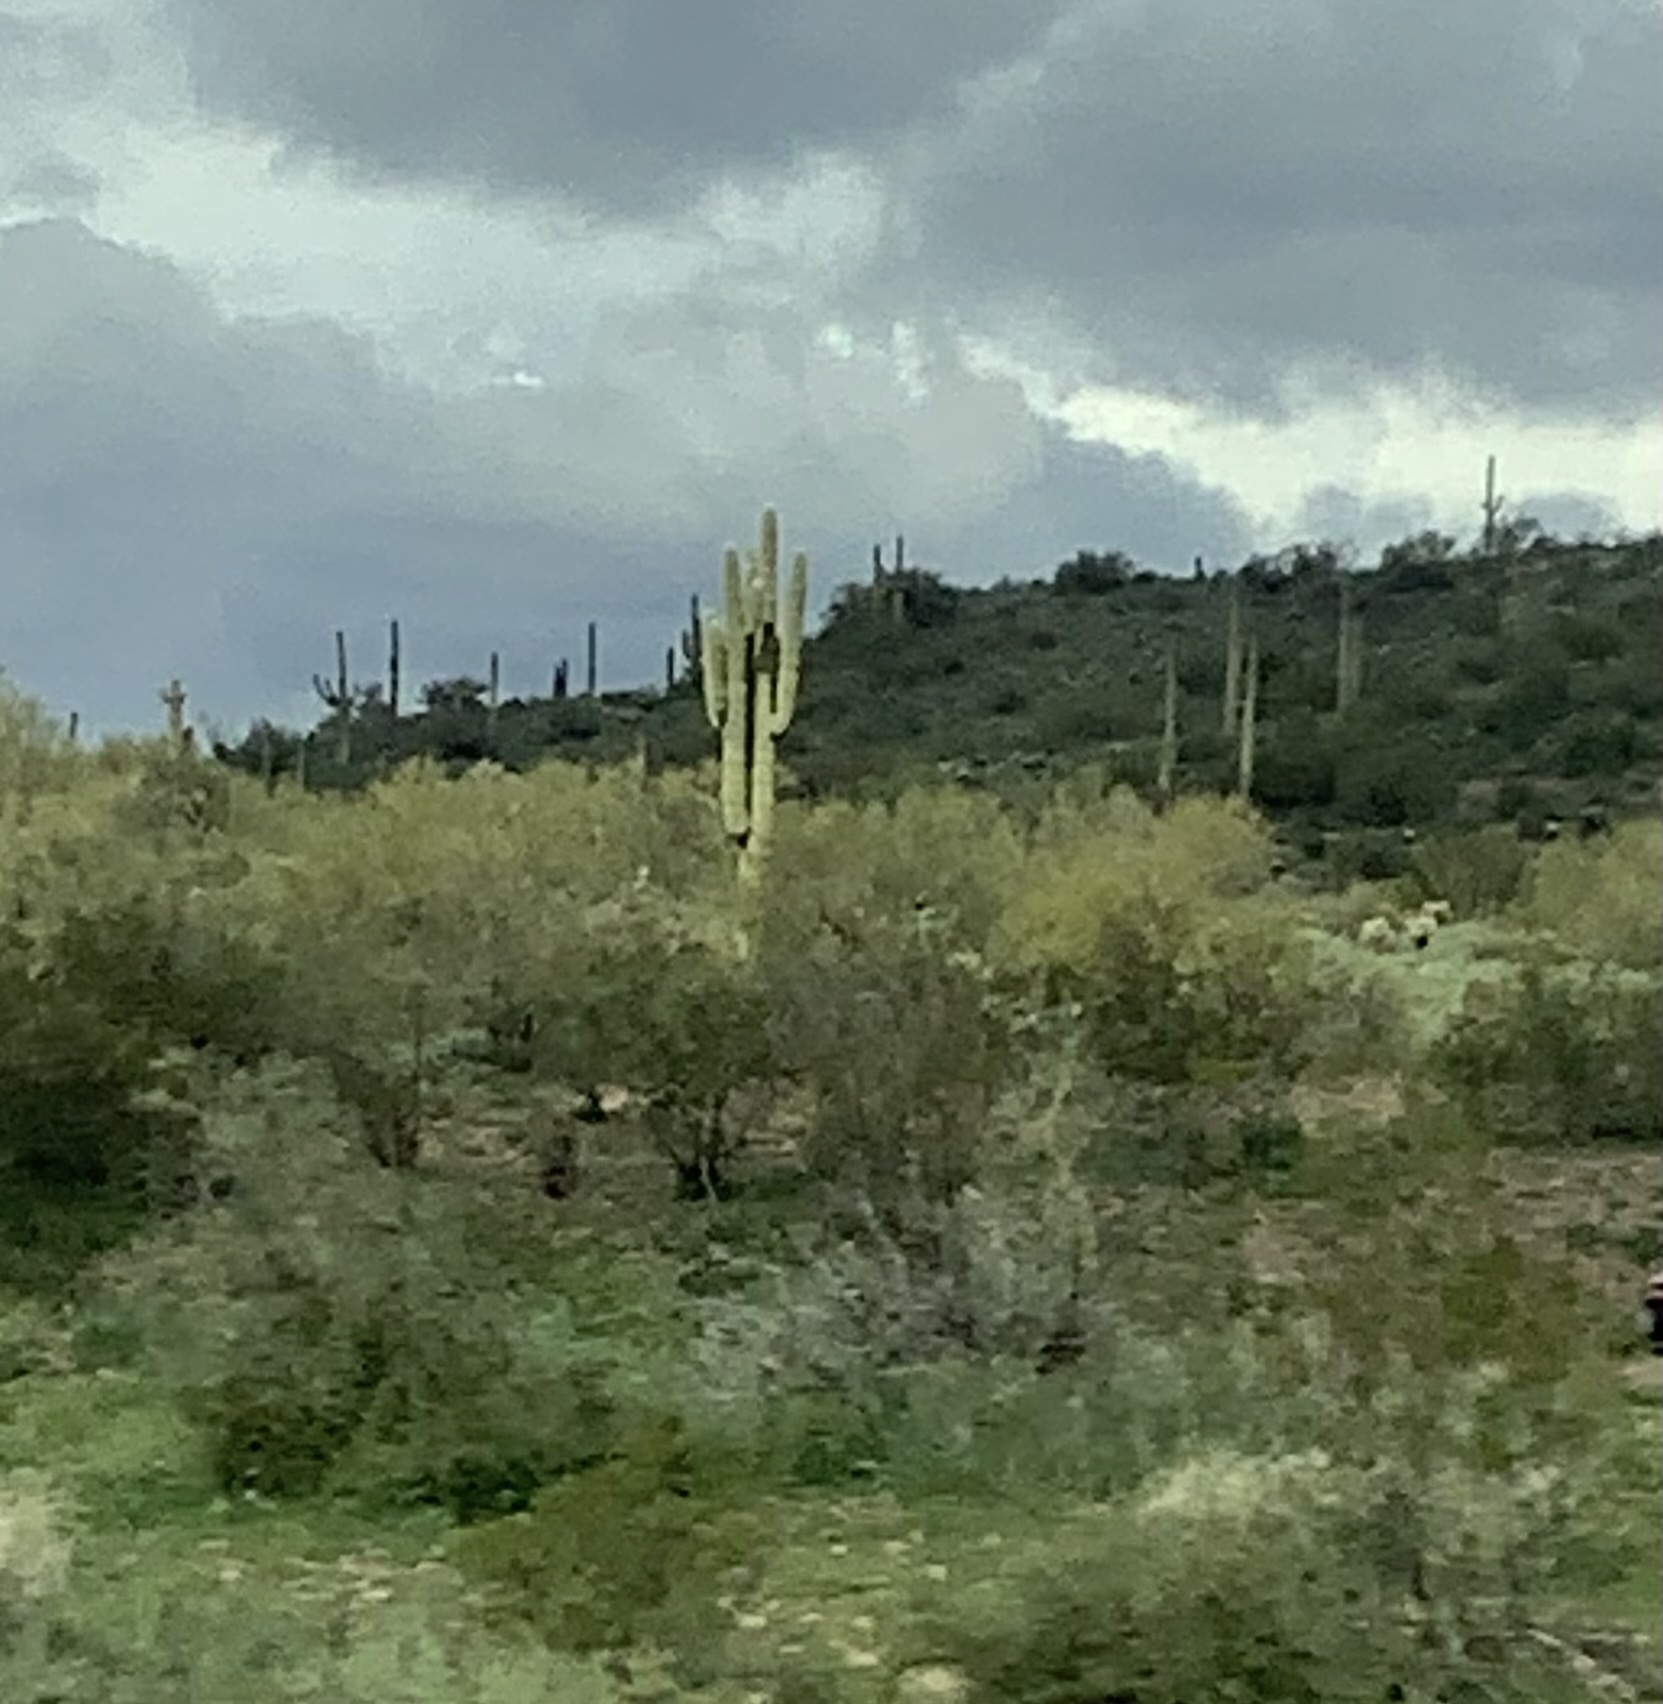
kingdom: Plantae
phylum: Tracheophyta
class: Magnoliopsida
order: Caryophyllales
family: Cactaceae
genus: Carnegiea
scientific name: Carnegiea gigantea
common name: Saguaro
